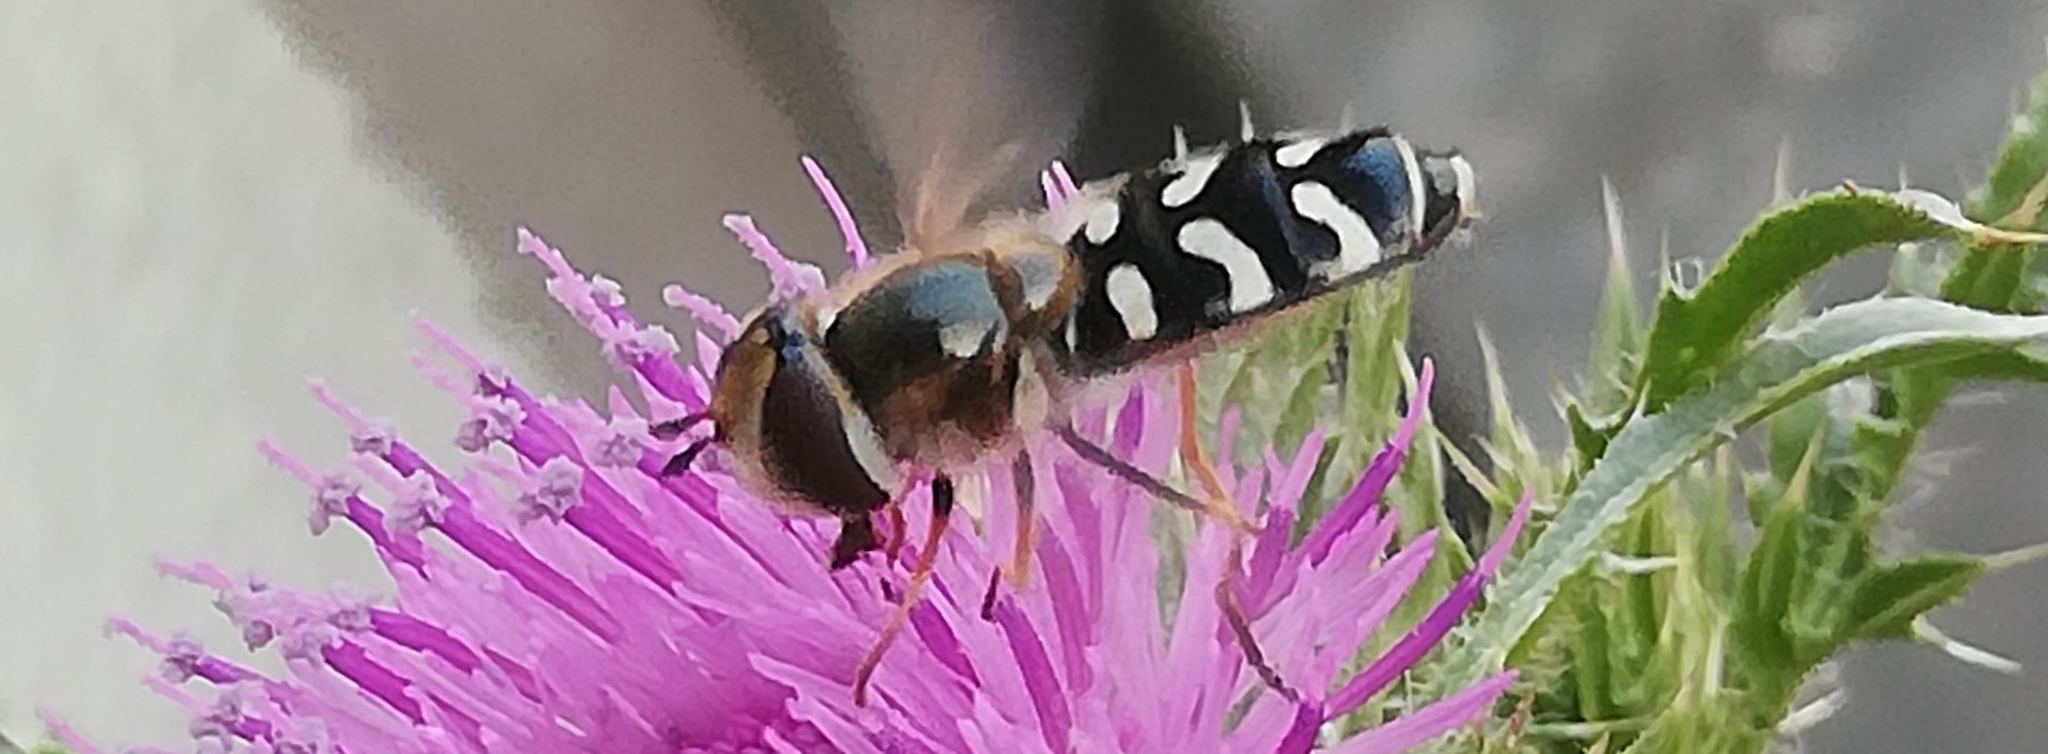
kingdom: Animalia
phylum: Arthropoda
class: Insecta
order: Diptera
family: Syrphidae
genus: Scaeva
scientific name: Scaeva pyrastri
